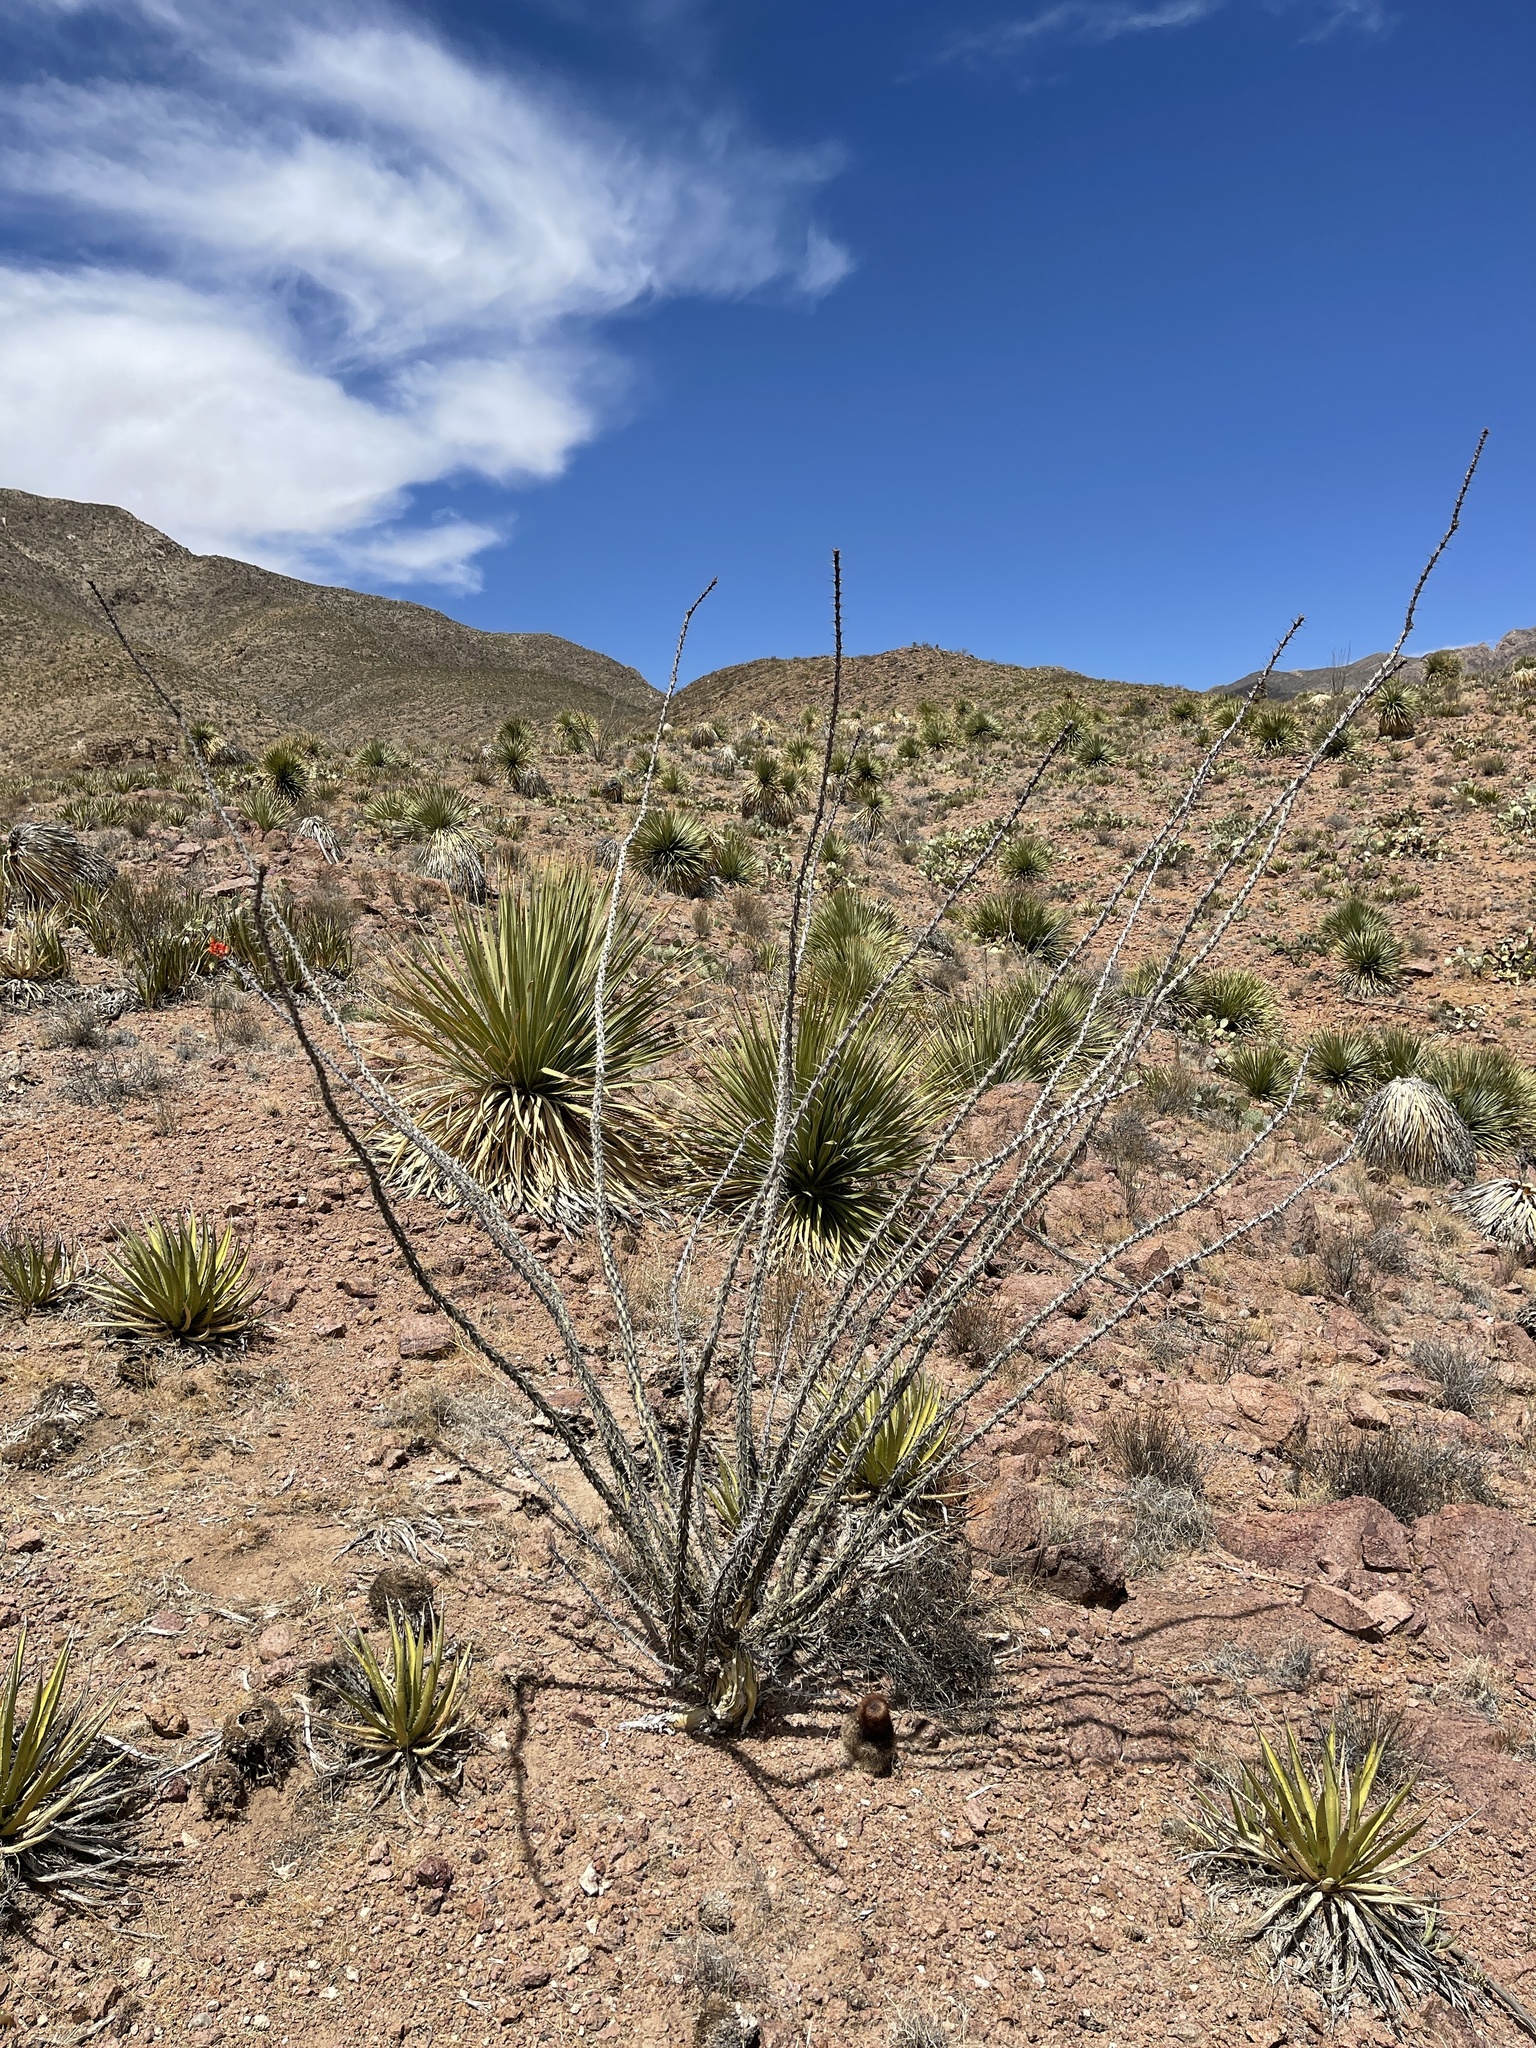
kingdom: Plantae
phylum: Tracheophyta
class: Magnoliopsida
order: Ericales
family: Fouquieriaceae
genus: Fouquieria
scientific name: Fouquieria splendens
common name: Vine-cactus
